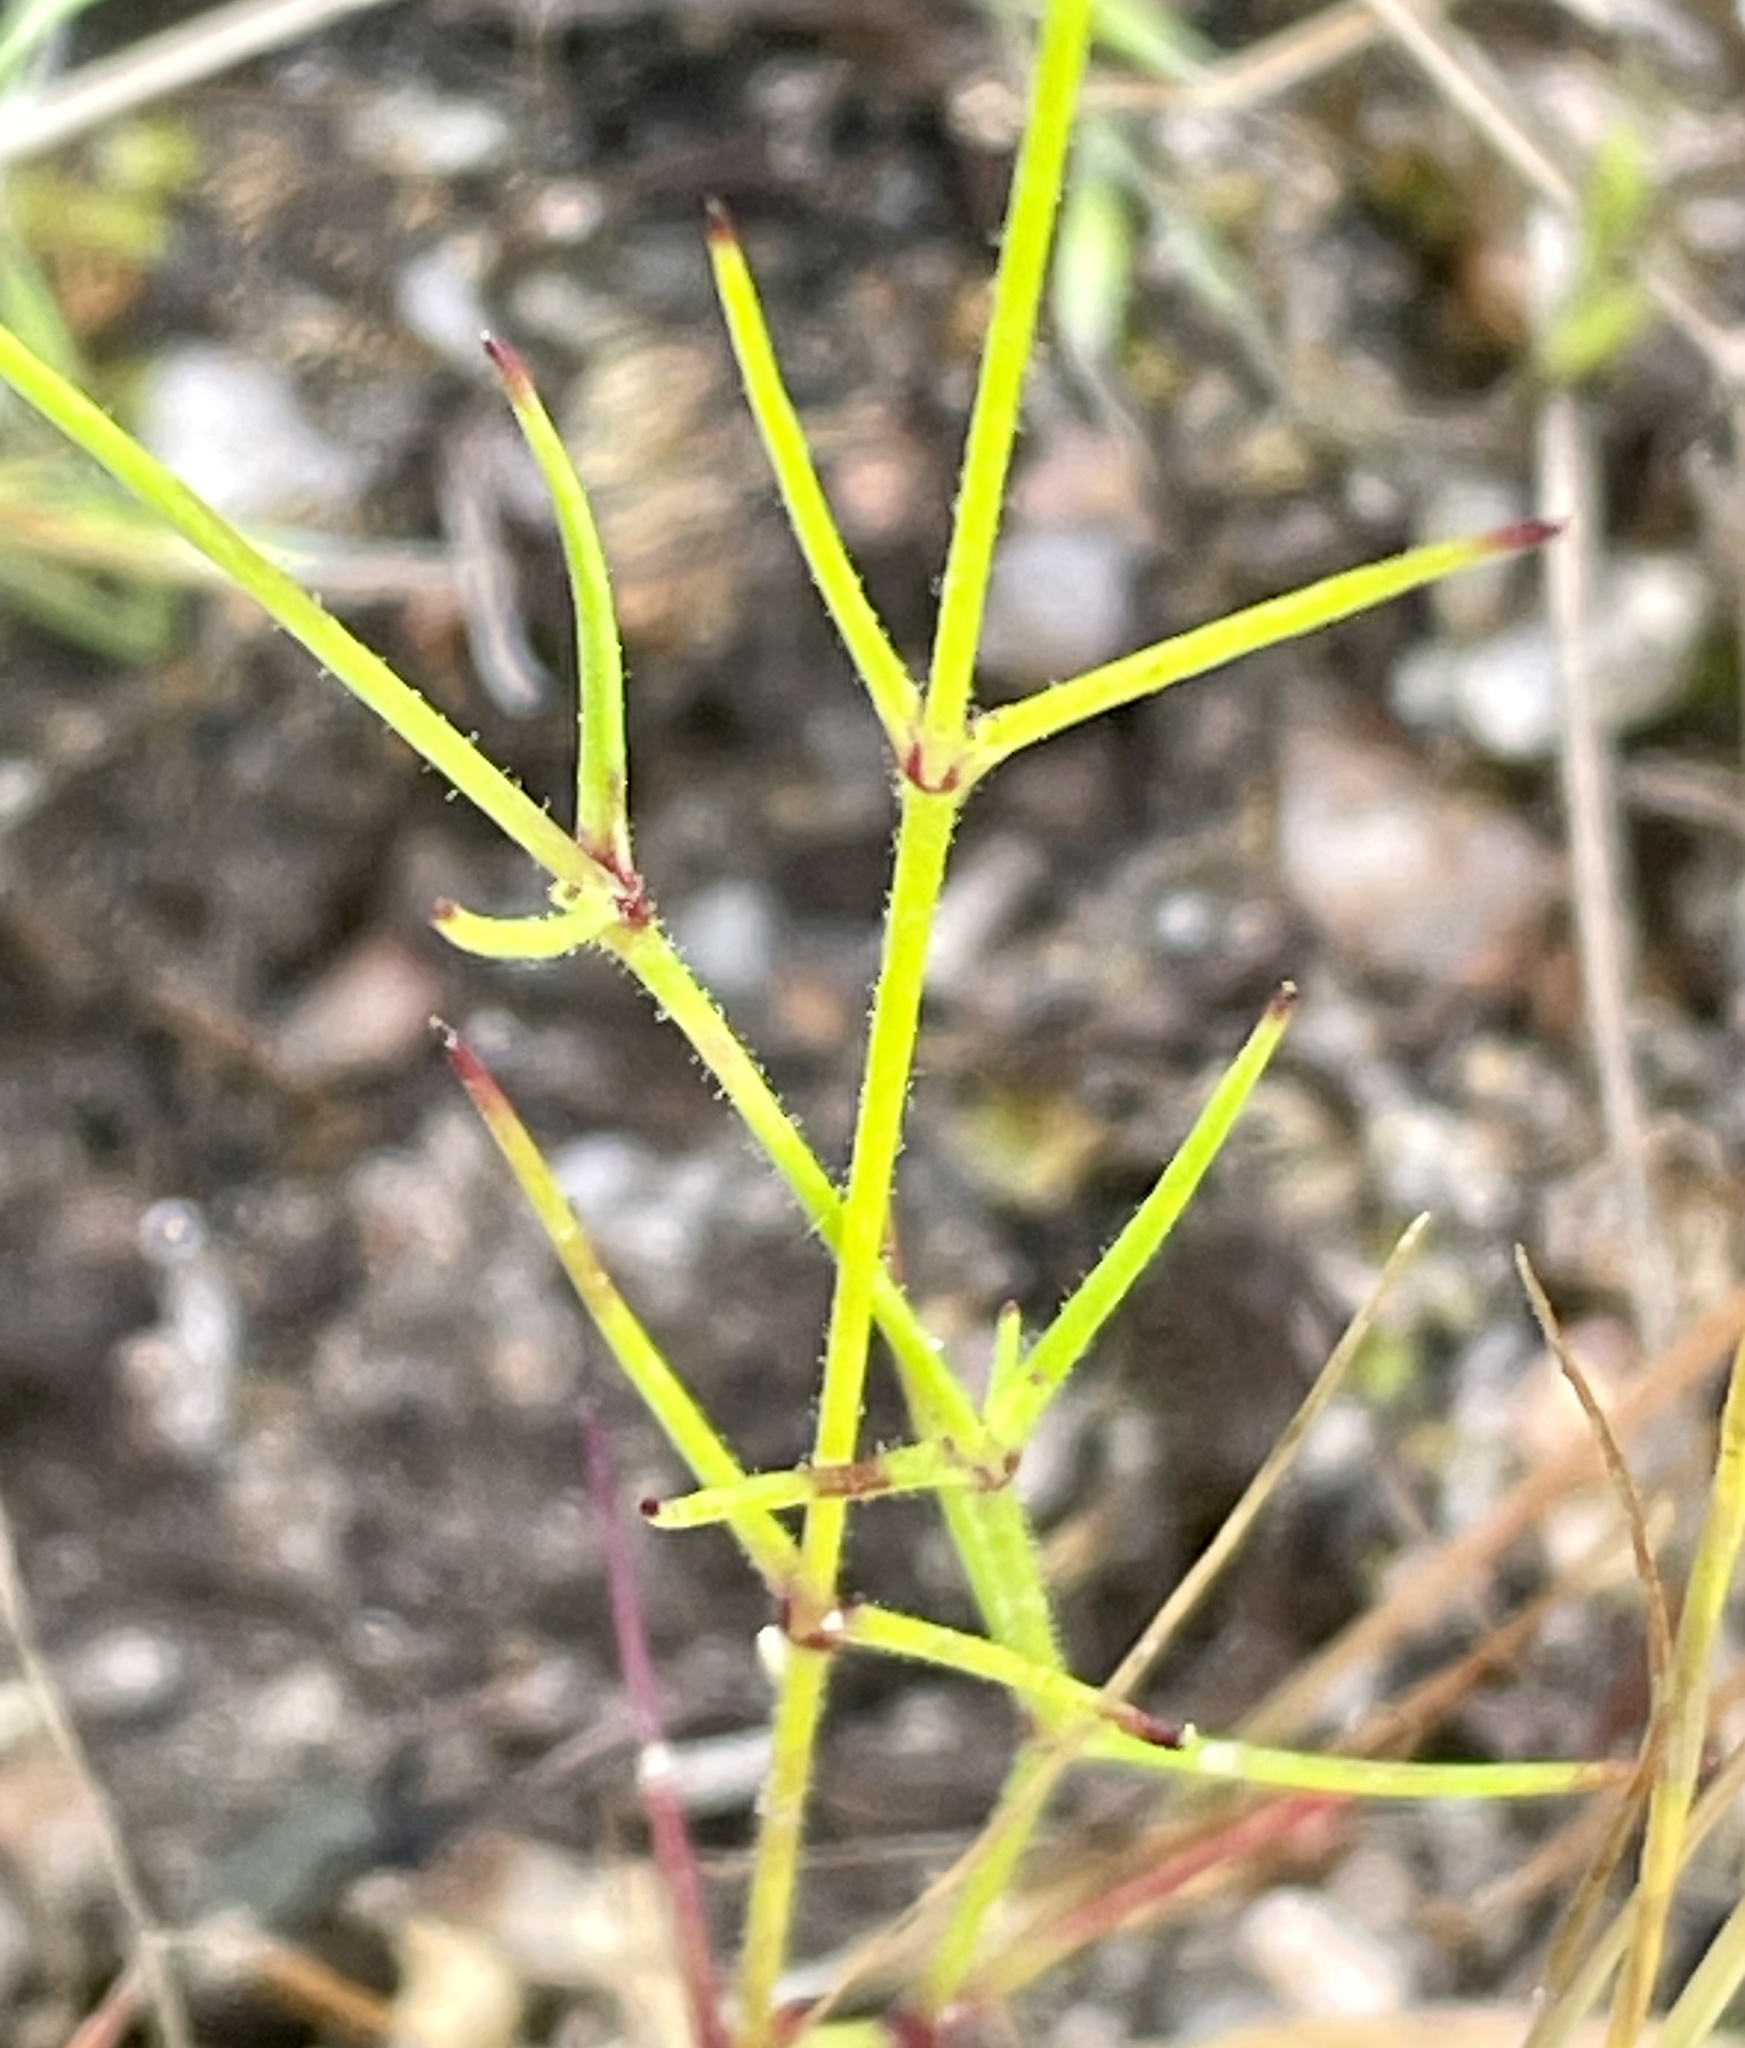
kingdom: Plantae
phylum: Tracheophyta
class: Magnoliopsida
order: Caryophyllales
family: Caryophyllaceae
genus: Sabulina
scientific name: Sabulina douglasii
